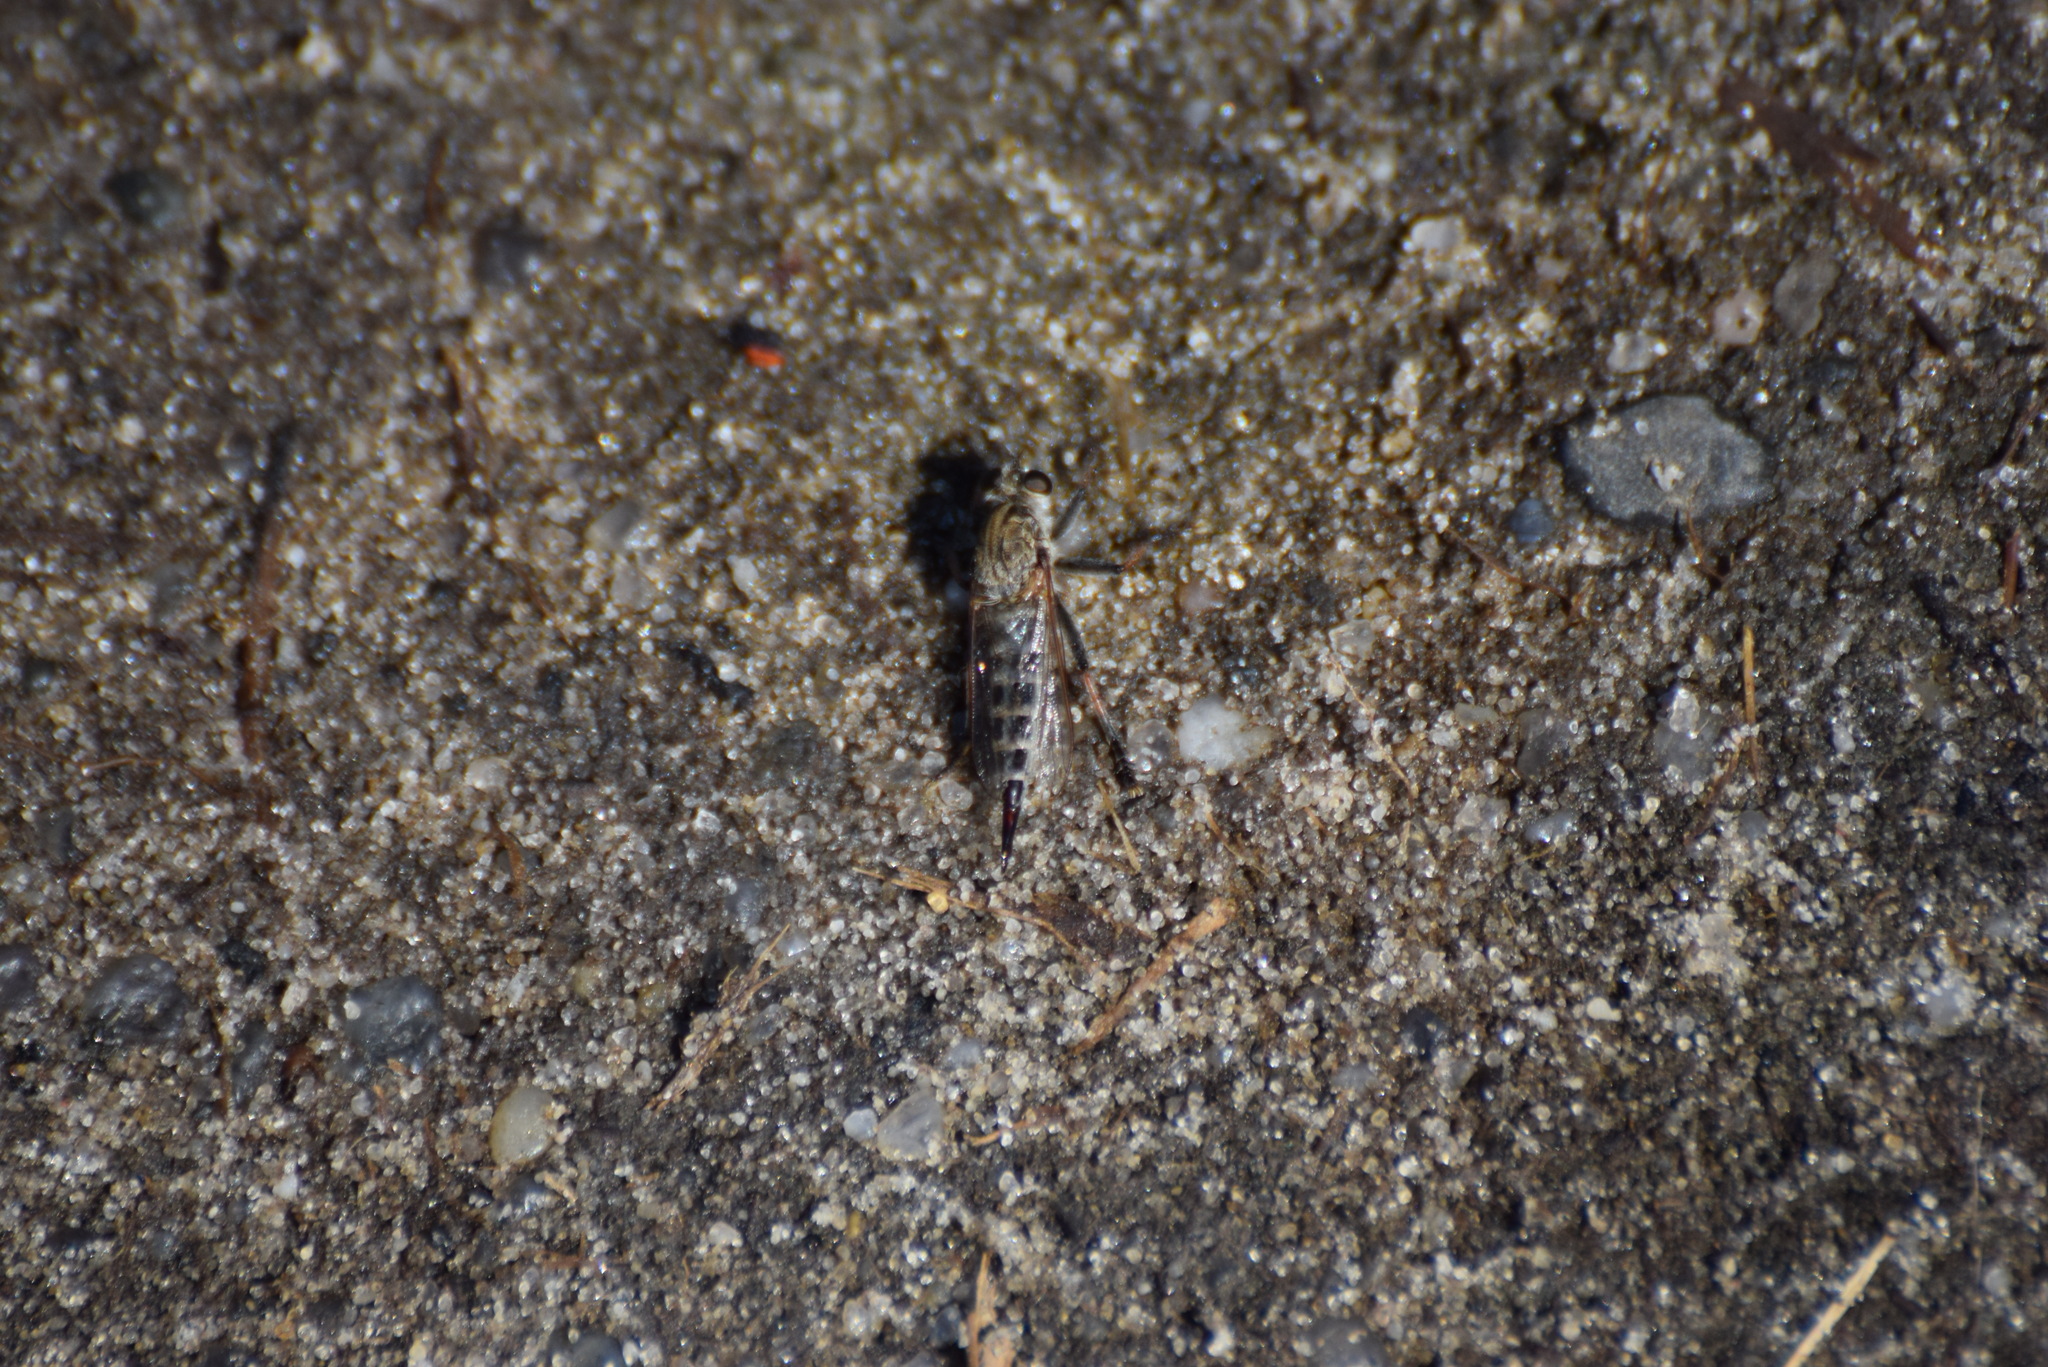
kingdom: Animalia
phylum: Arthropoda
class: Insecta
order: Diptera
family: Asilidae
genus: Efferia
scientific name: Efferia albibarbis
